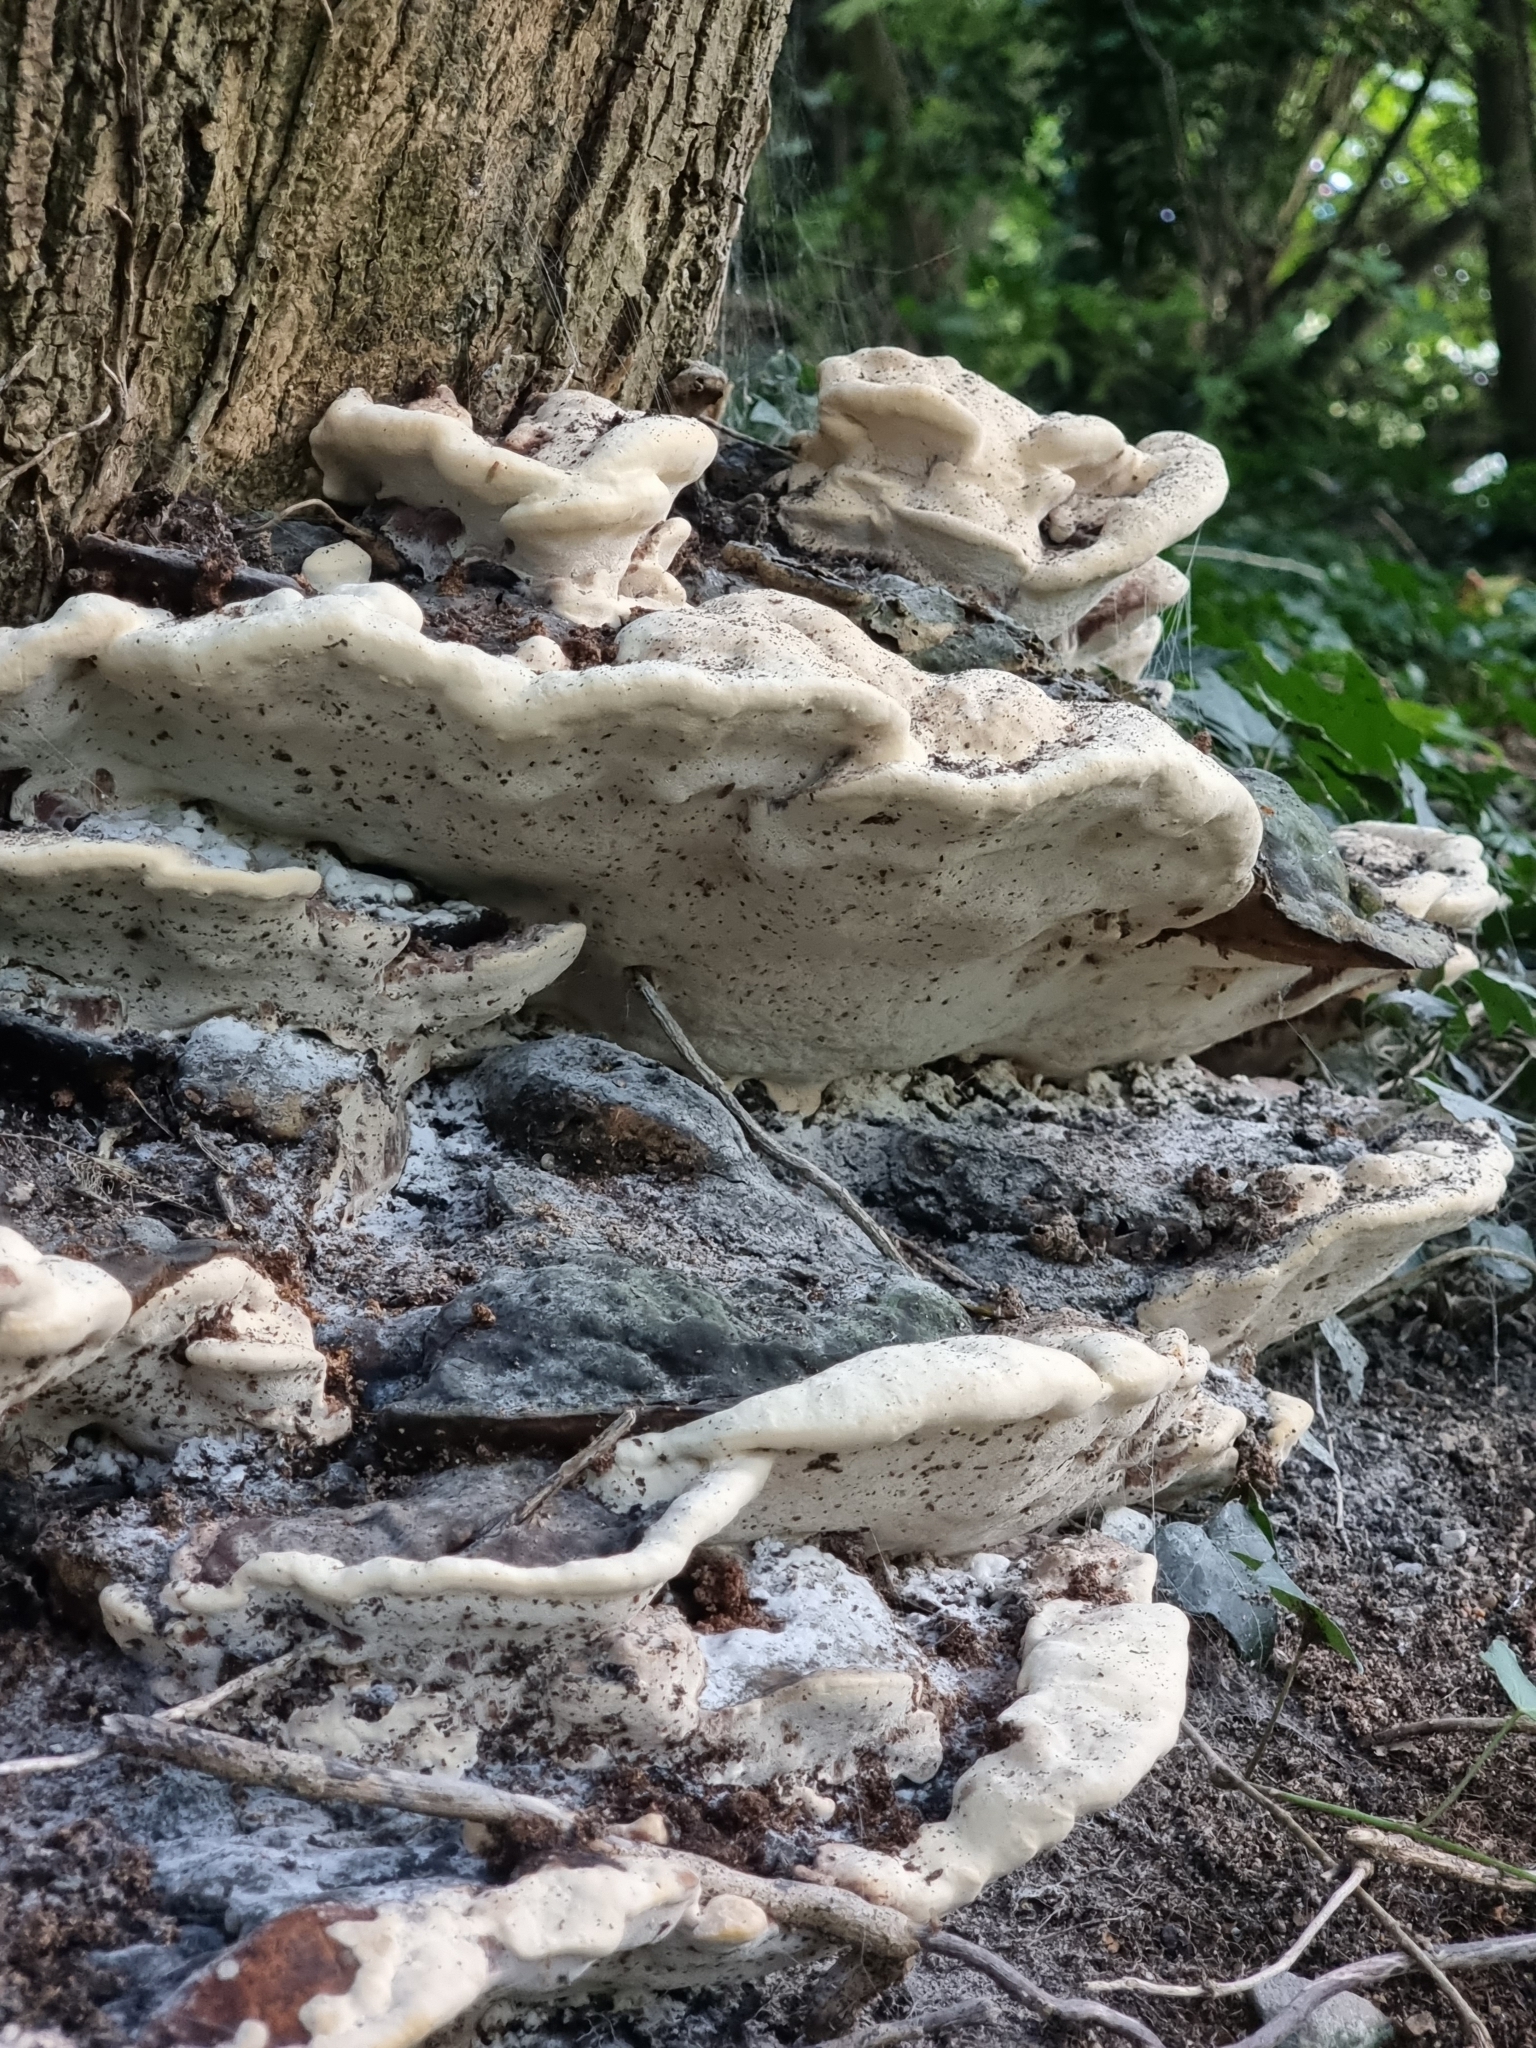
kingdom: Fungi
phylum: Basidiomycota
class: Agaricomycetes
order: Polyporales
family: Polyporaceae
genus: Vanderbylia
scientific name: Vanderbylia fraxinea
